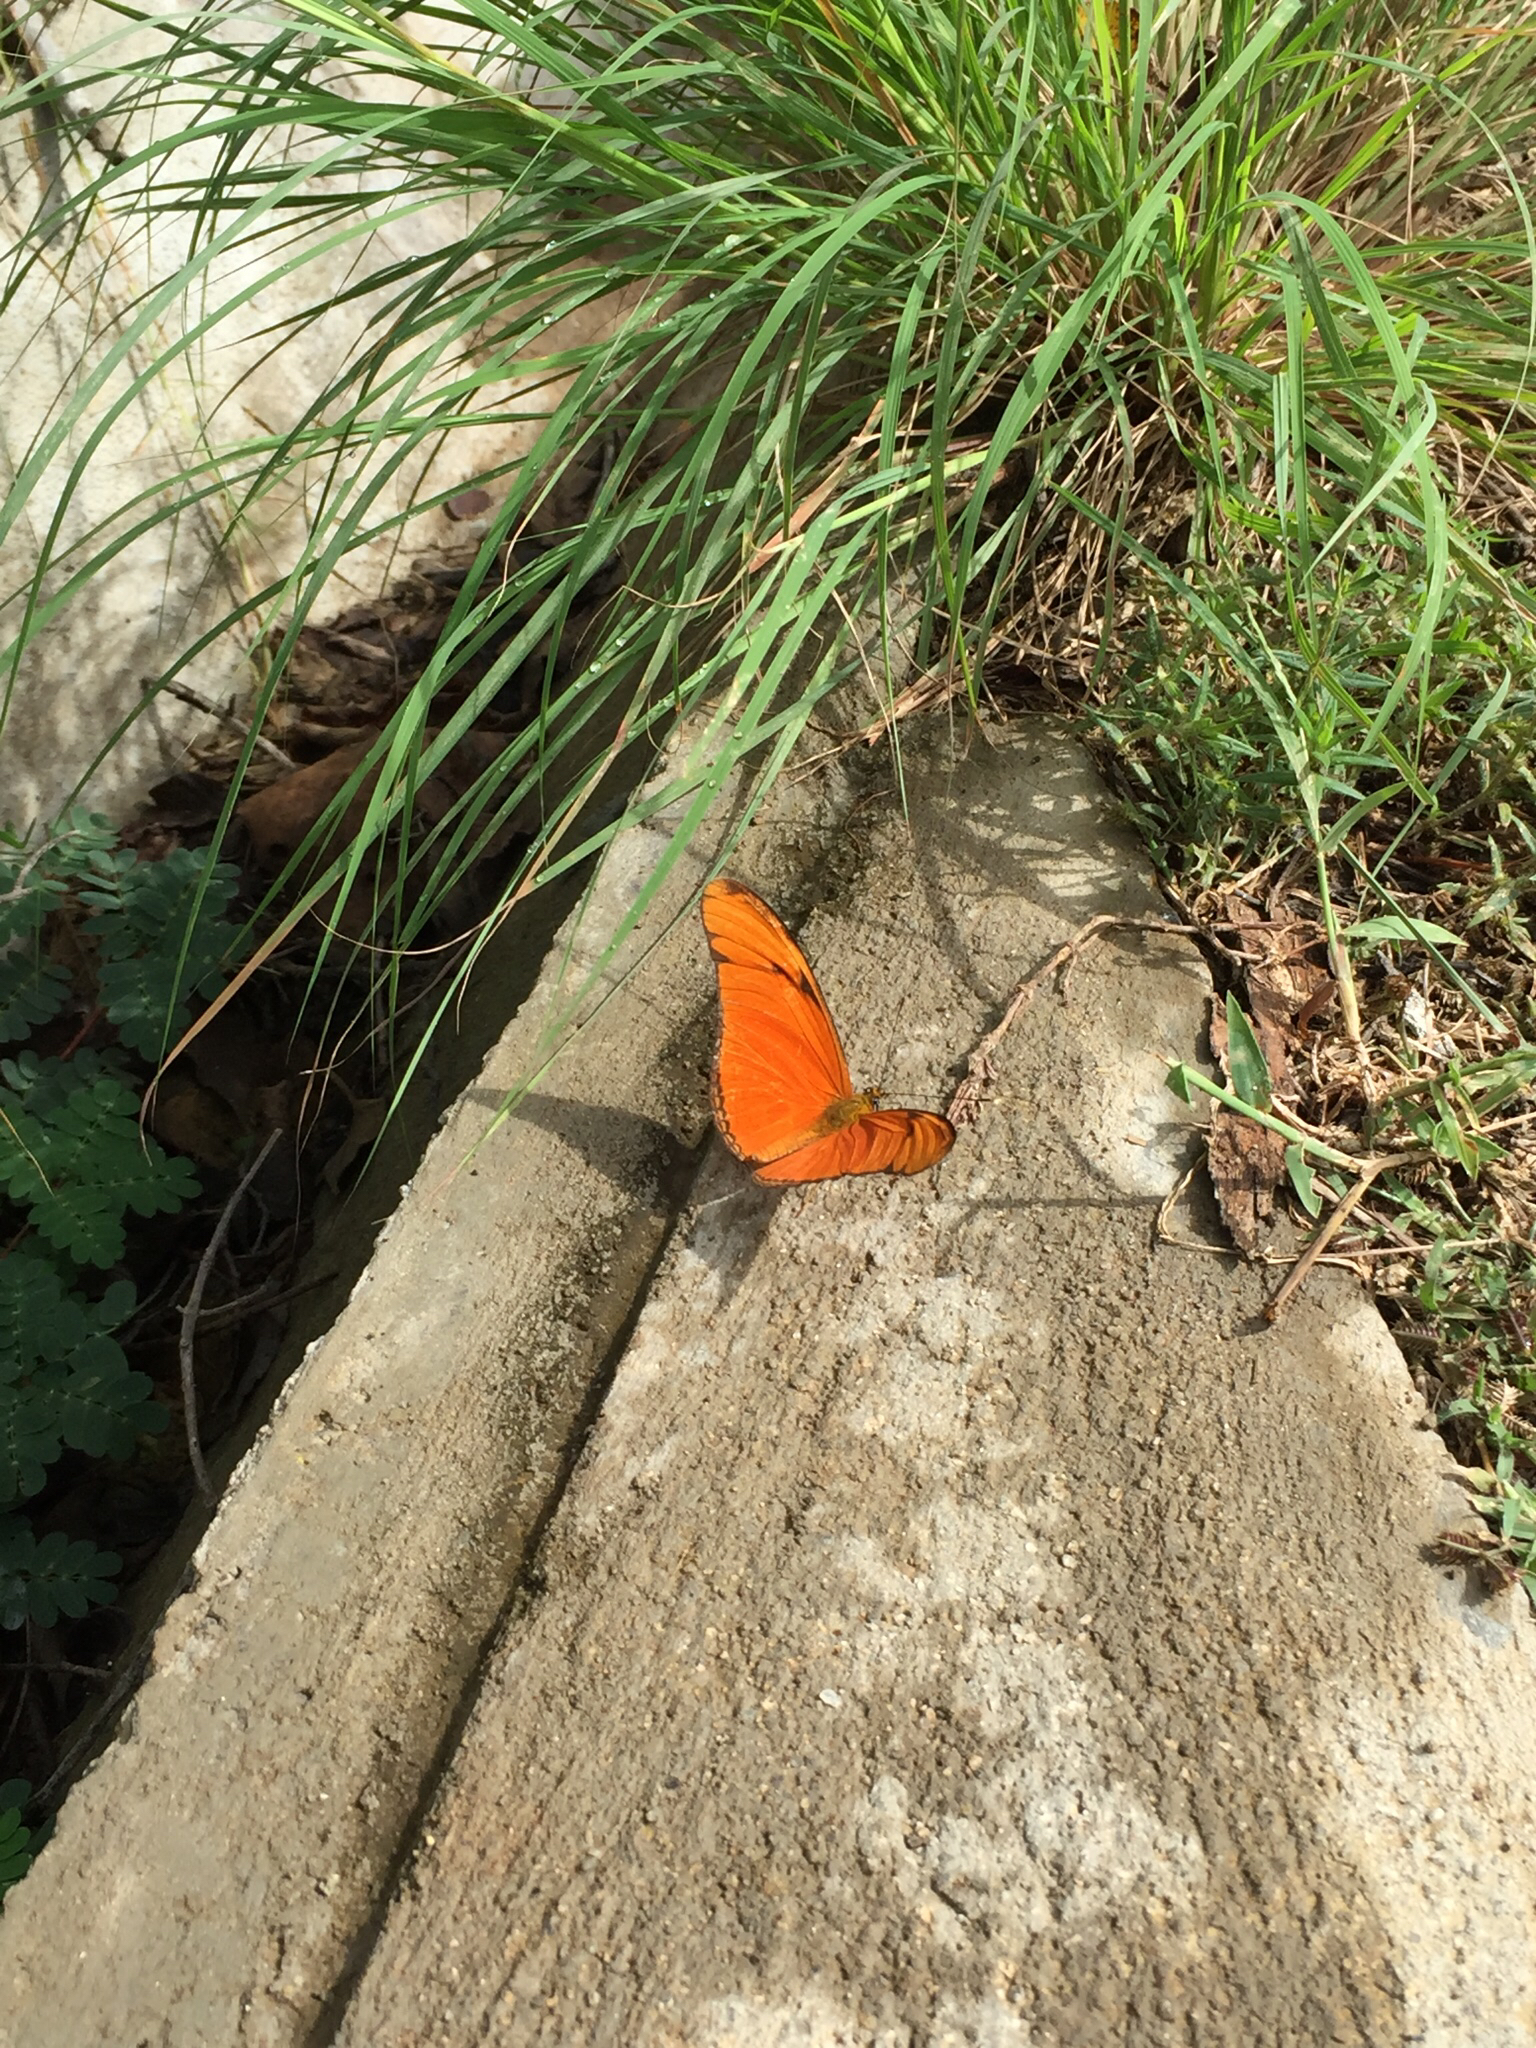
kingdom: Animalia
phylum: Arthropoda
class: Insecta
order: Lepidoptera
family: Nymphalidae
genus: Dryas
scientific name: Dryas iulia
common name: Flambeau
